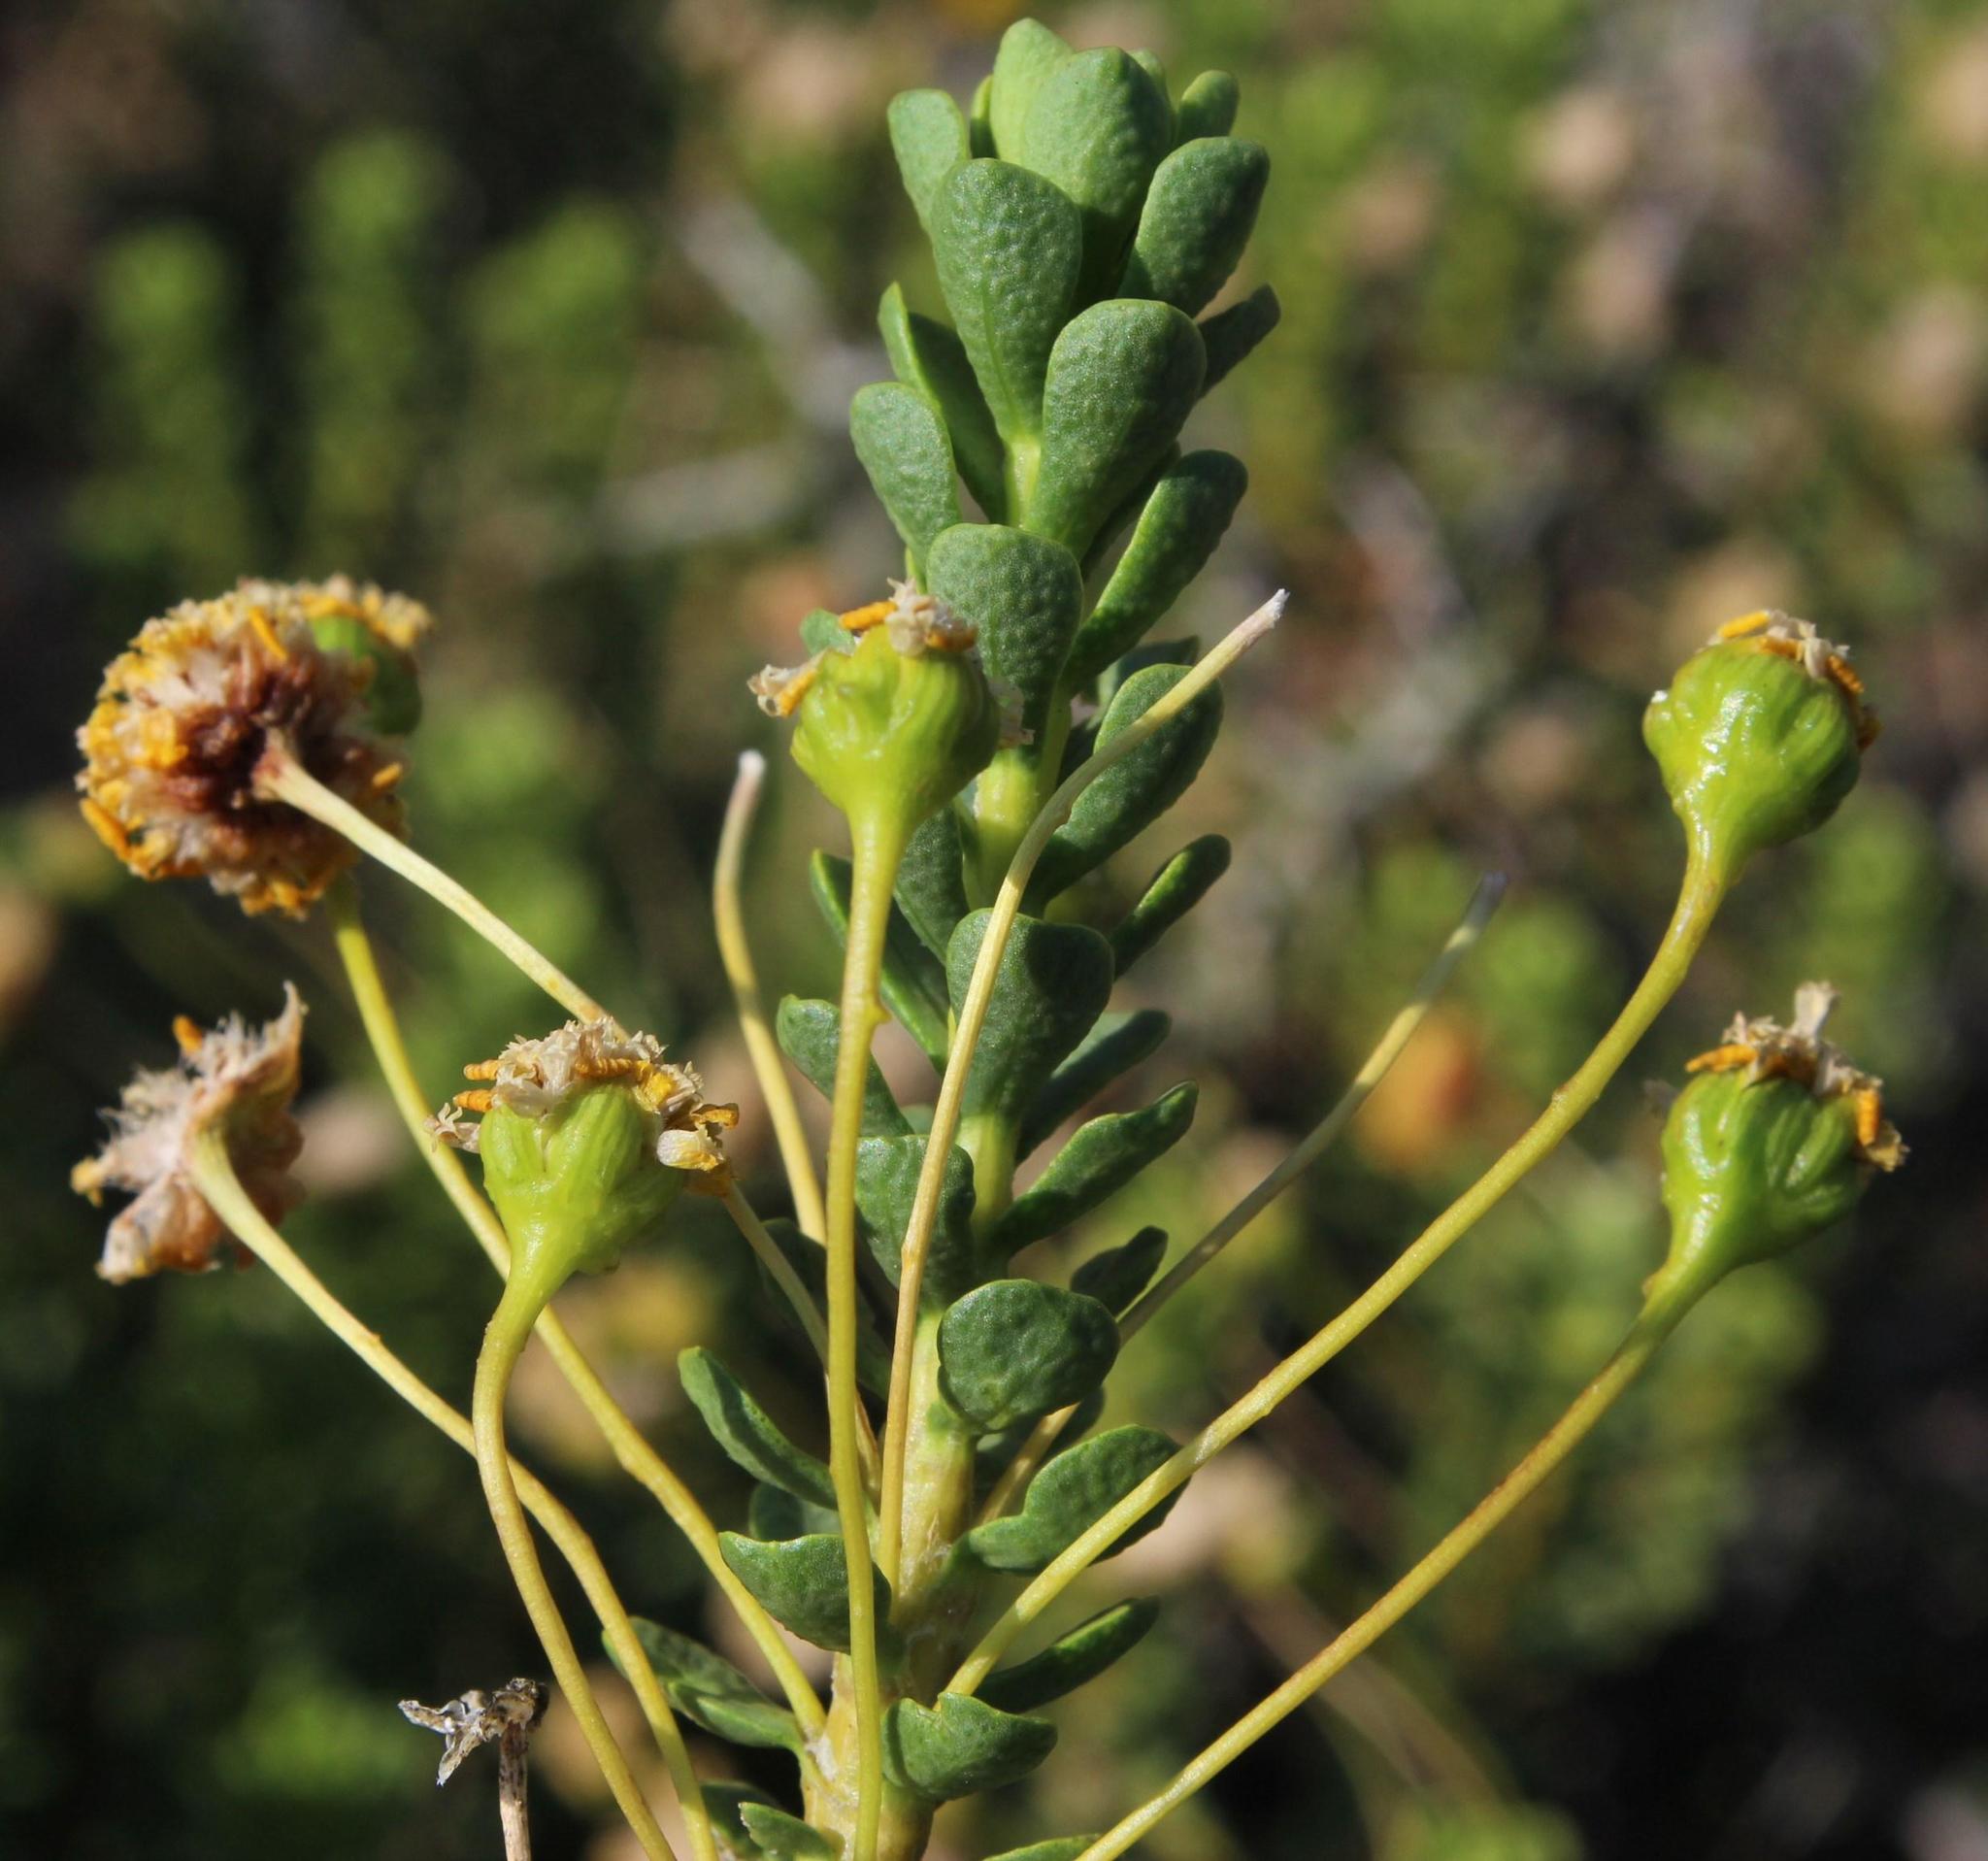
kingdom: Plantae
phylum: Tracheophyta
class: Magnoliopsida
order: Asterales
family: Asteraceae
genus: Euryops
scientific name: Euryops imbricatus
